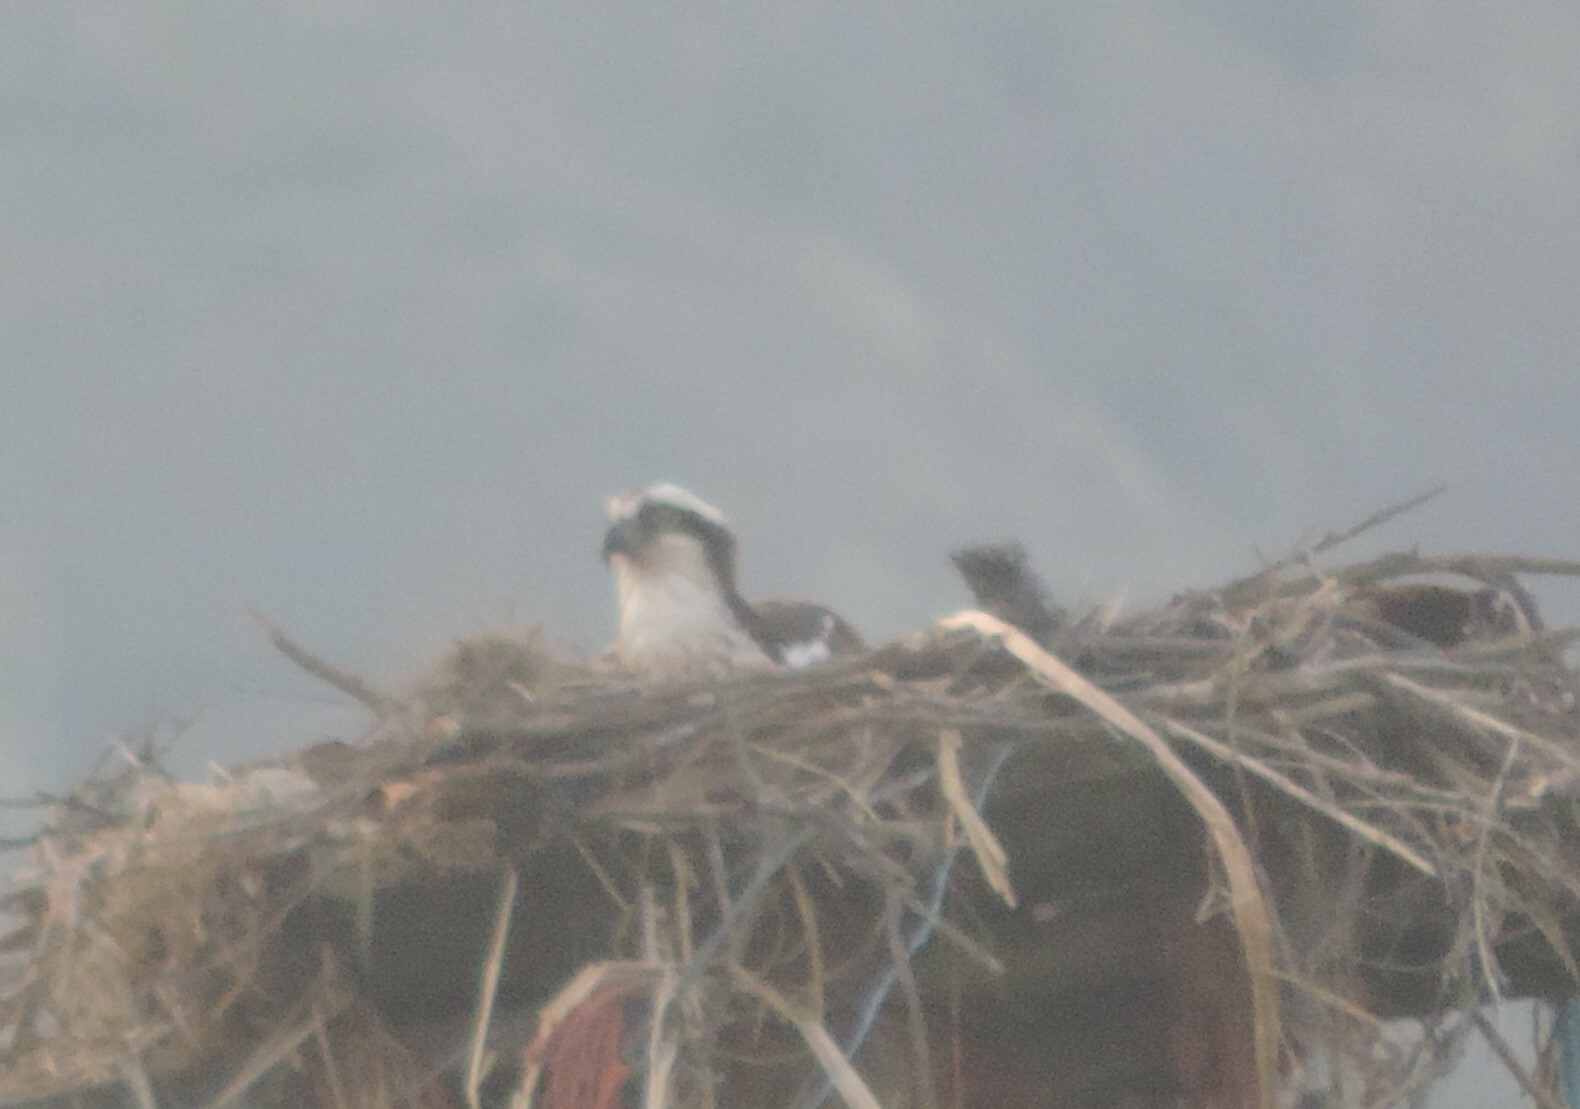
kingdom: Animalia
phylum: Chordata
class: Aves
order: Accipitriformes
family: Pandionidae
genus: Pandion
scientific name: Pandion haliaetus
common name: Osprey
